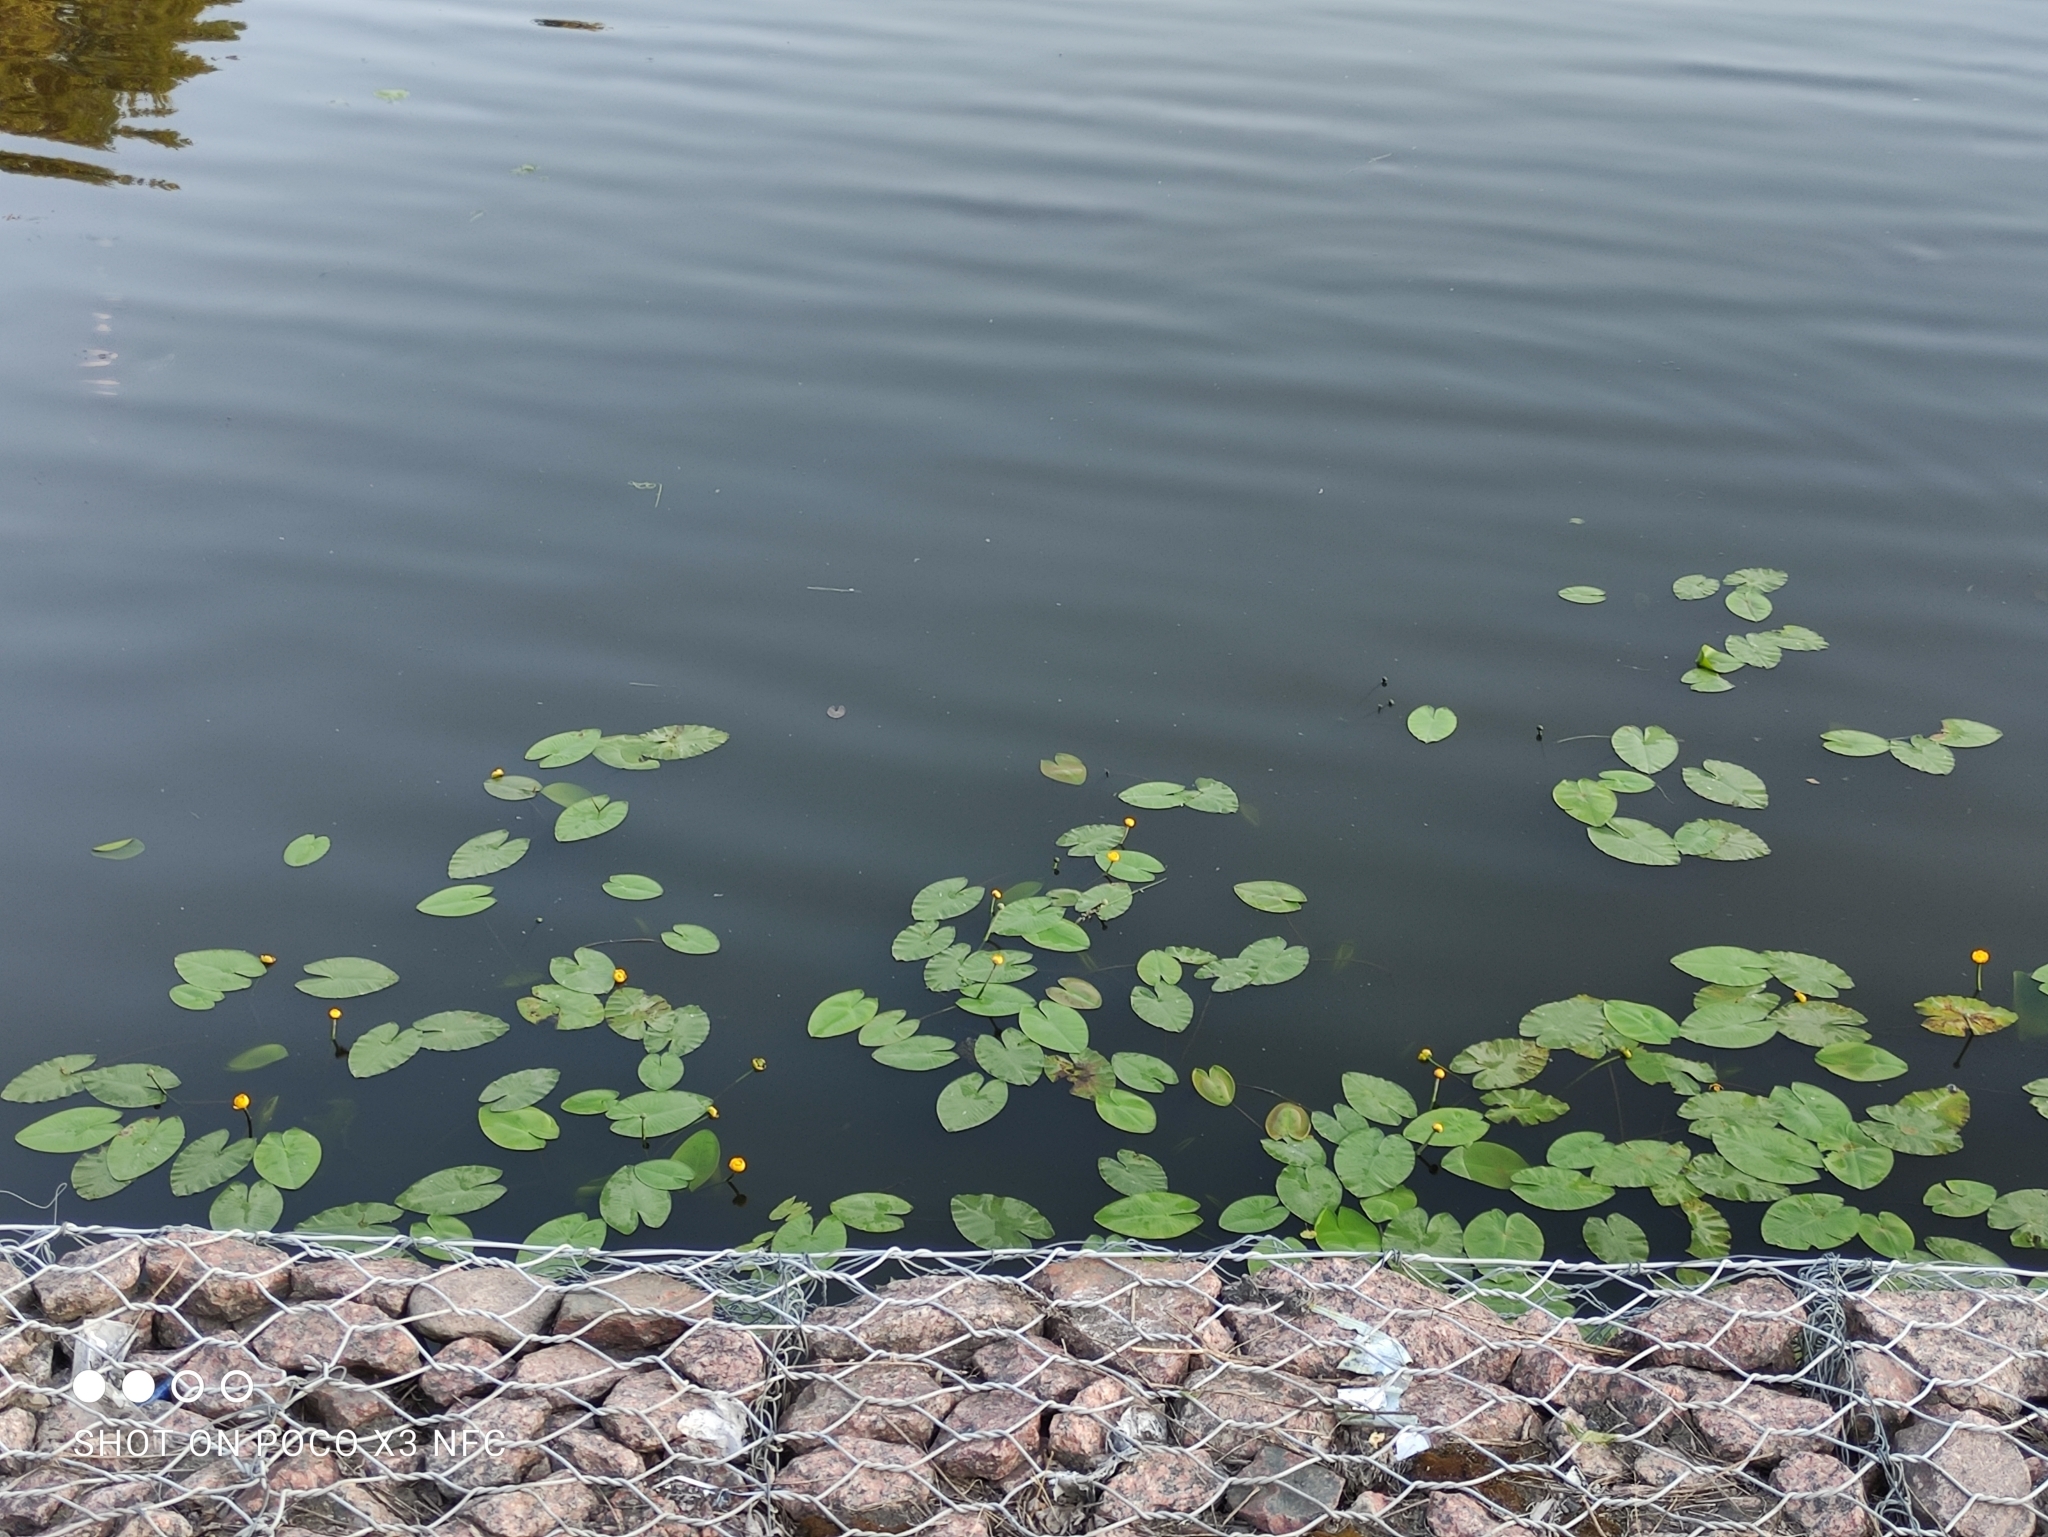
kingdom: Plantae
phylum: Tracheophyta
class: Magnoliopsida
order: Nymphaeales
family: Nymphaeaceae
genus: Nuphar
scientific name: Nuphar lutea
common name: Yellow water-lily
